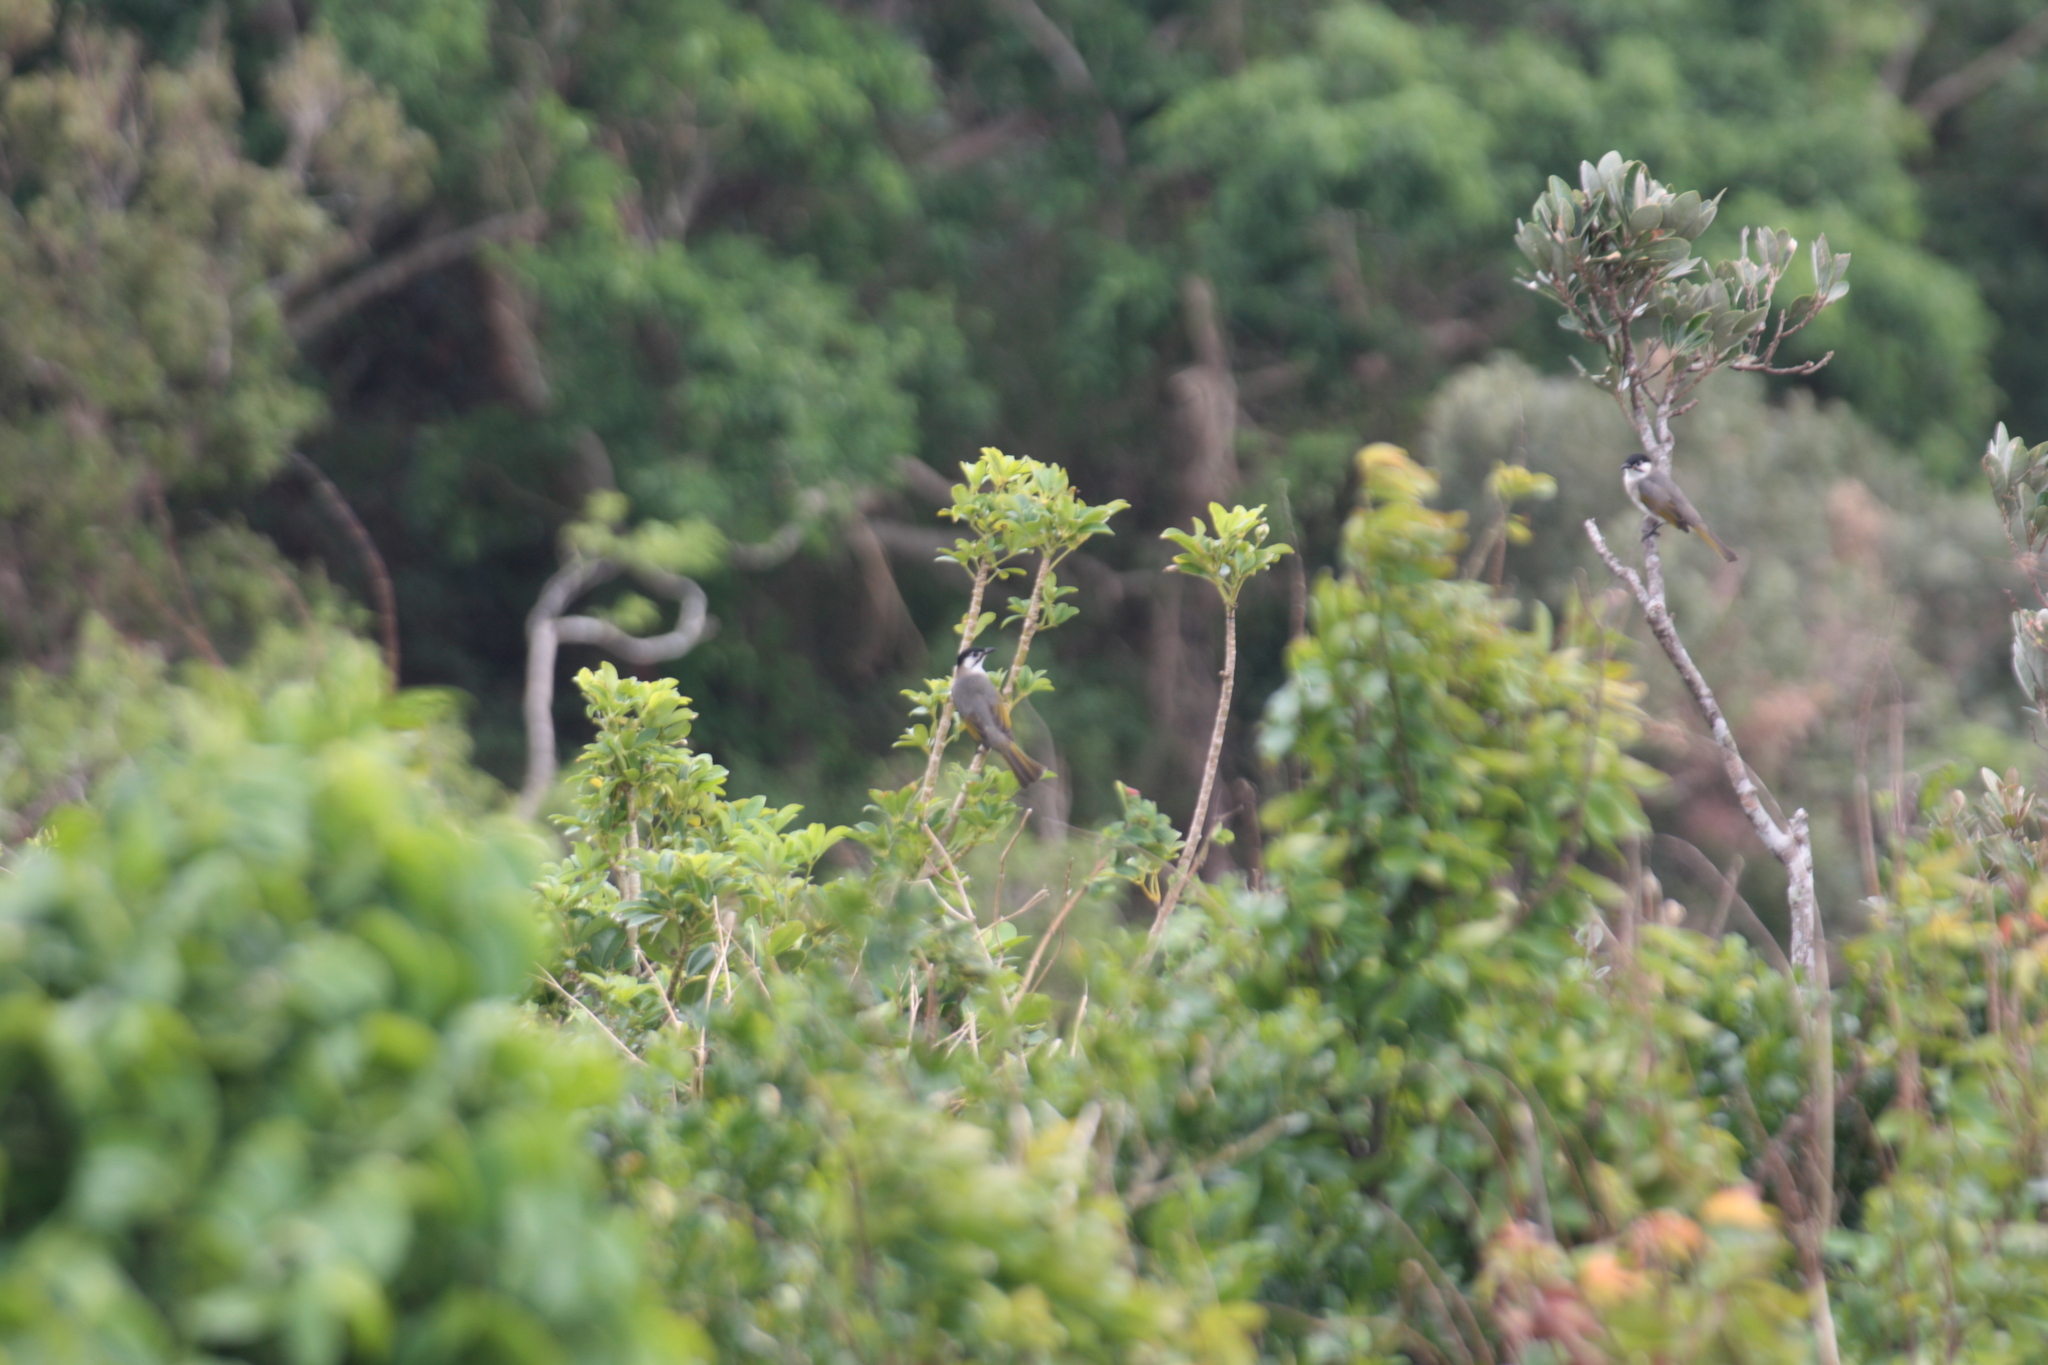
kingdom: Animalia
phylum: Chordata
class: Aves
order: Passeriformes
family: Pycnonotidae
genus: Pycnonotus
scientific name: Pycnonotus taivanus
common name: Styan's bulbul
